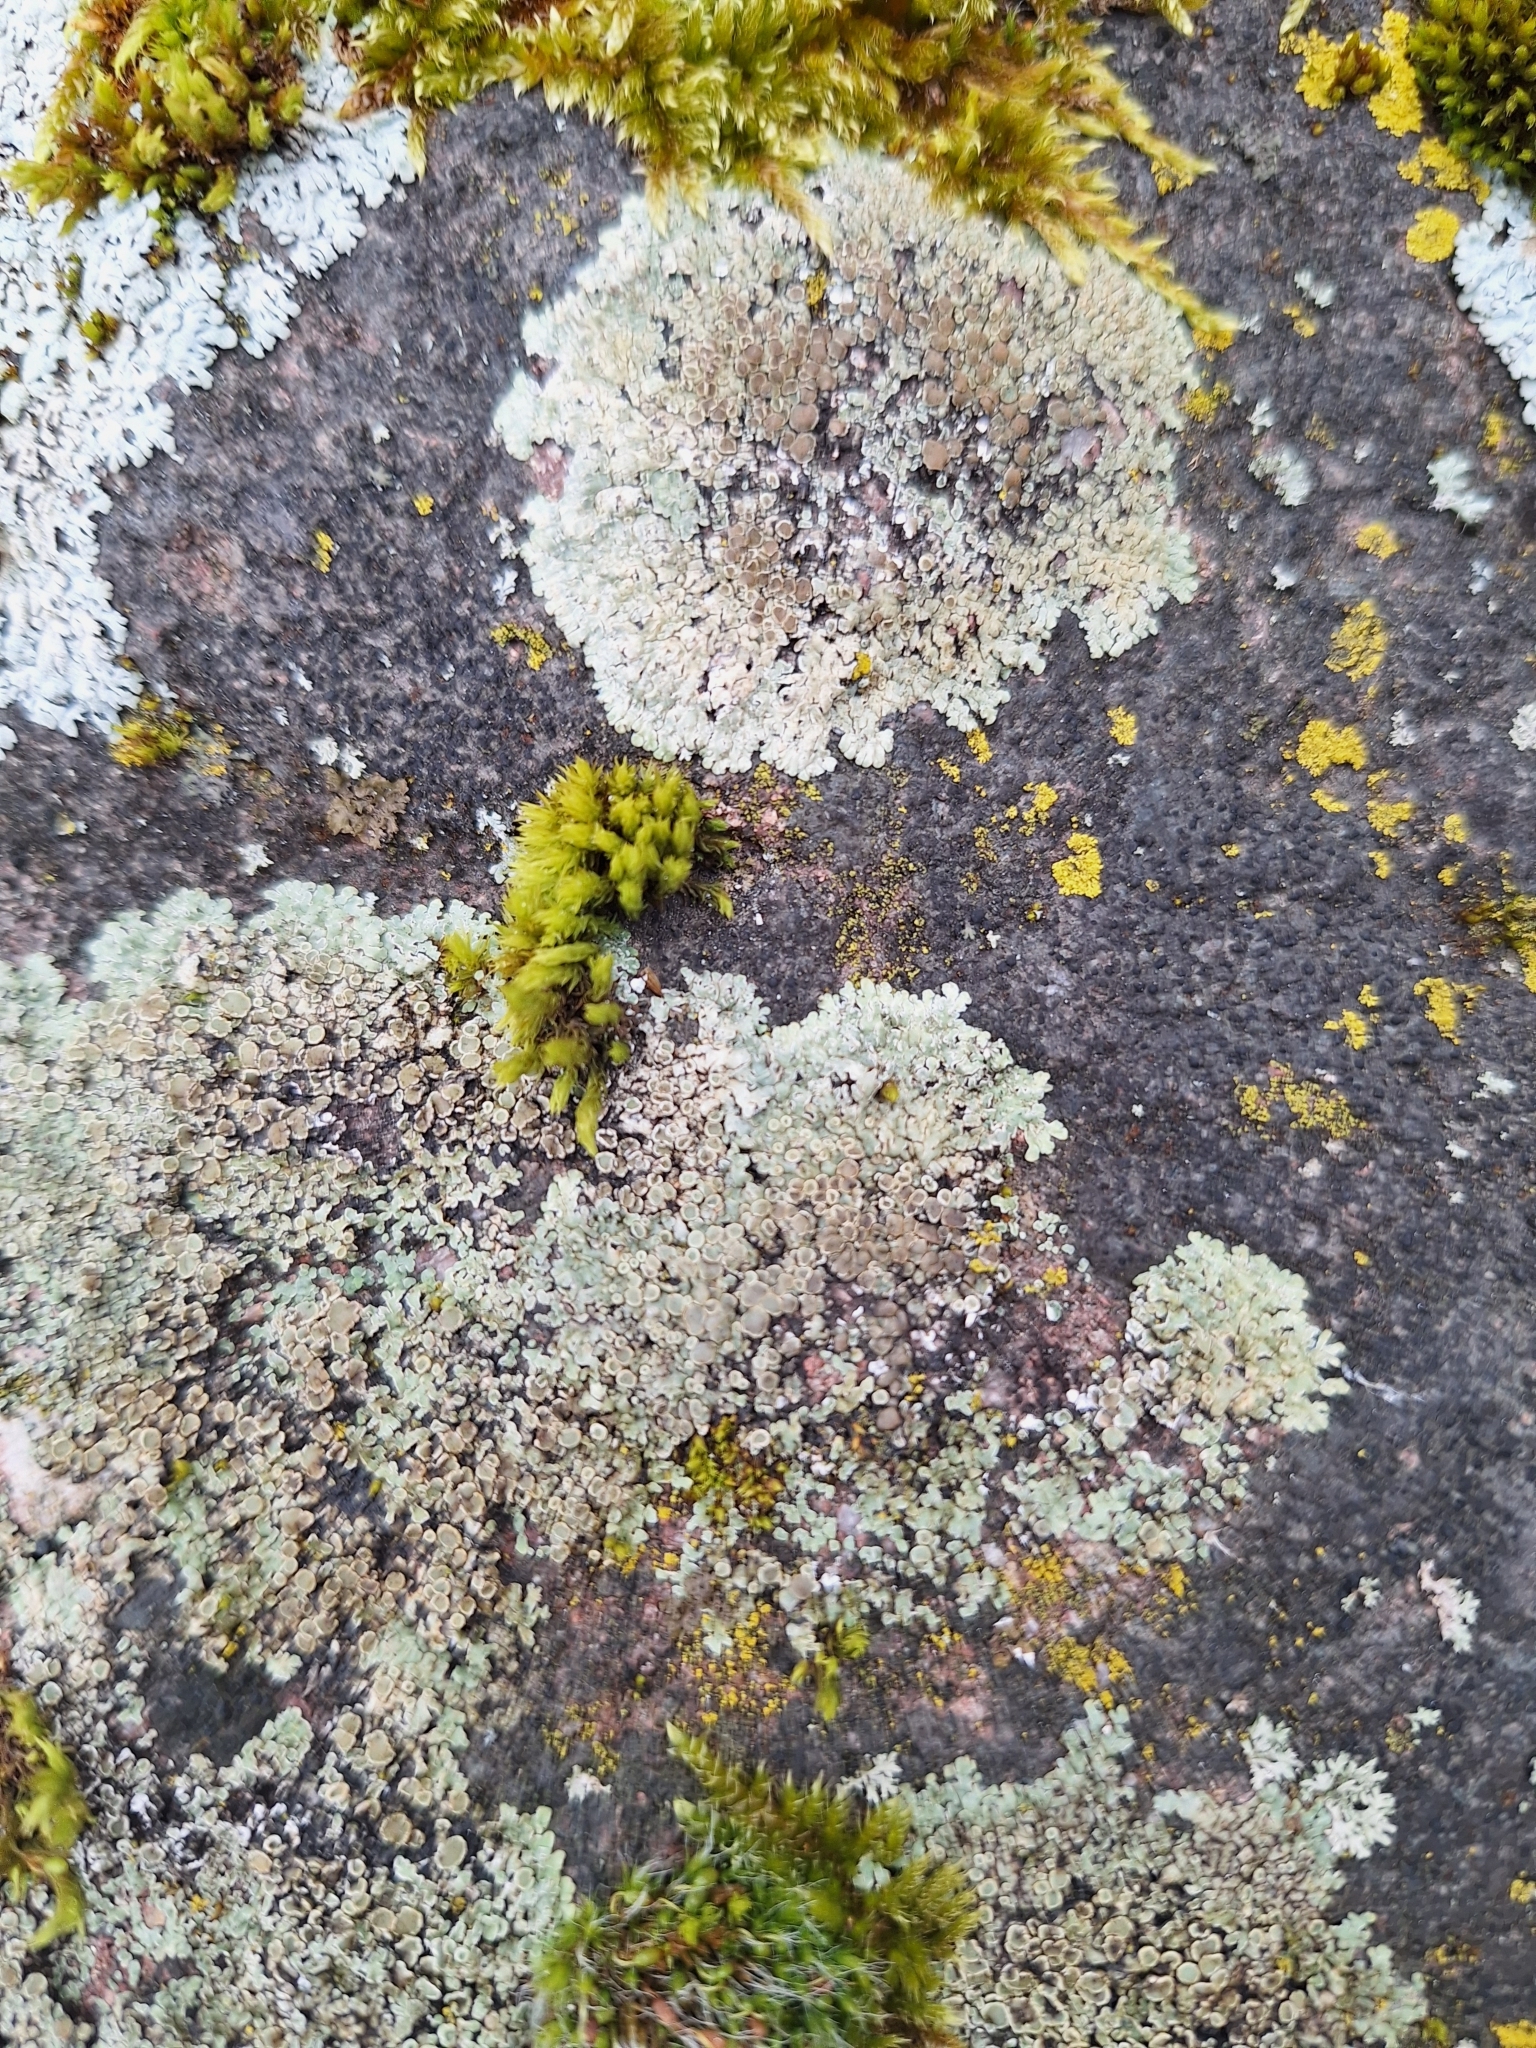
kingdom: Fungi
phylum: Ascomycota
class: Lecanoromycetes
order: Lecanorales
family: Lecanoraceae
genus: Protoparmeliopsis
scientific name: Protoparmeliopsis muralis
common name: Stonewall rim lichen
